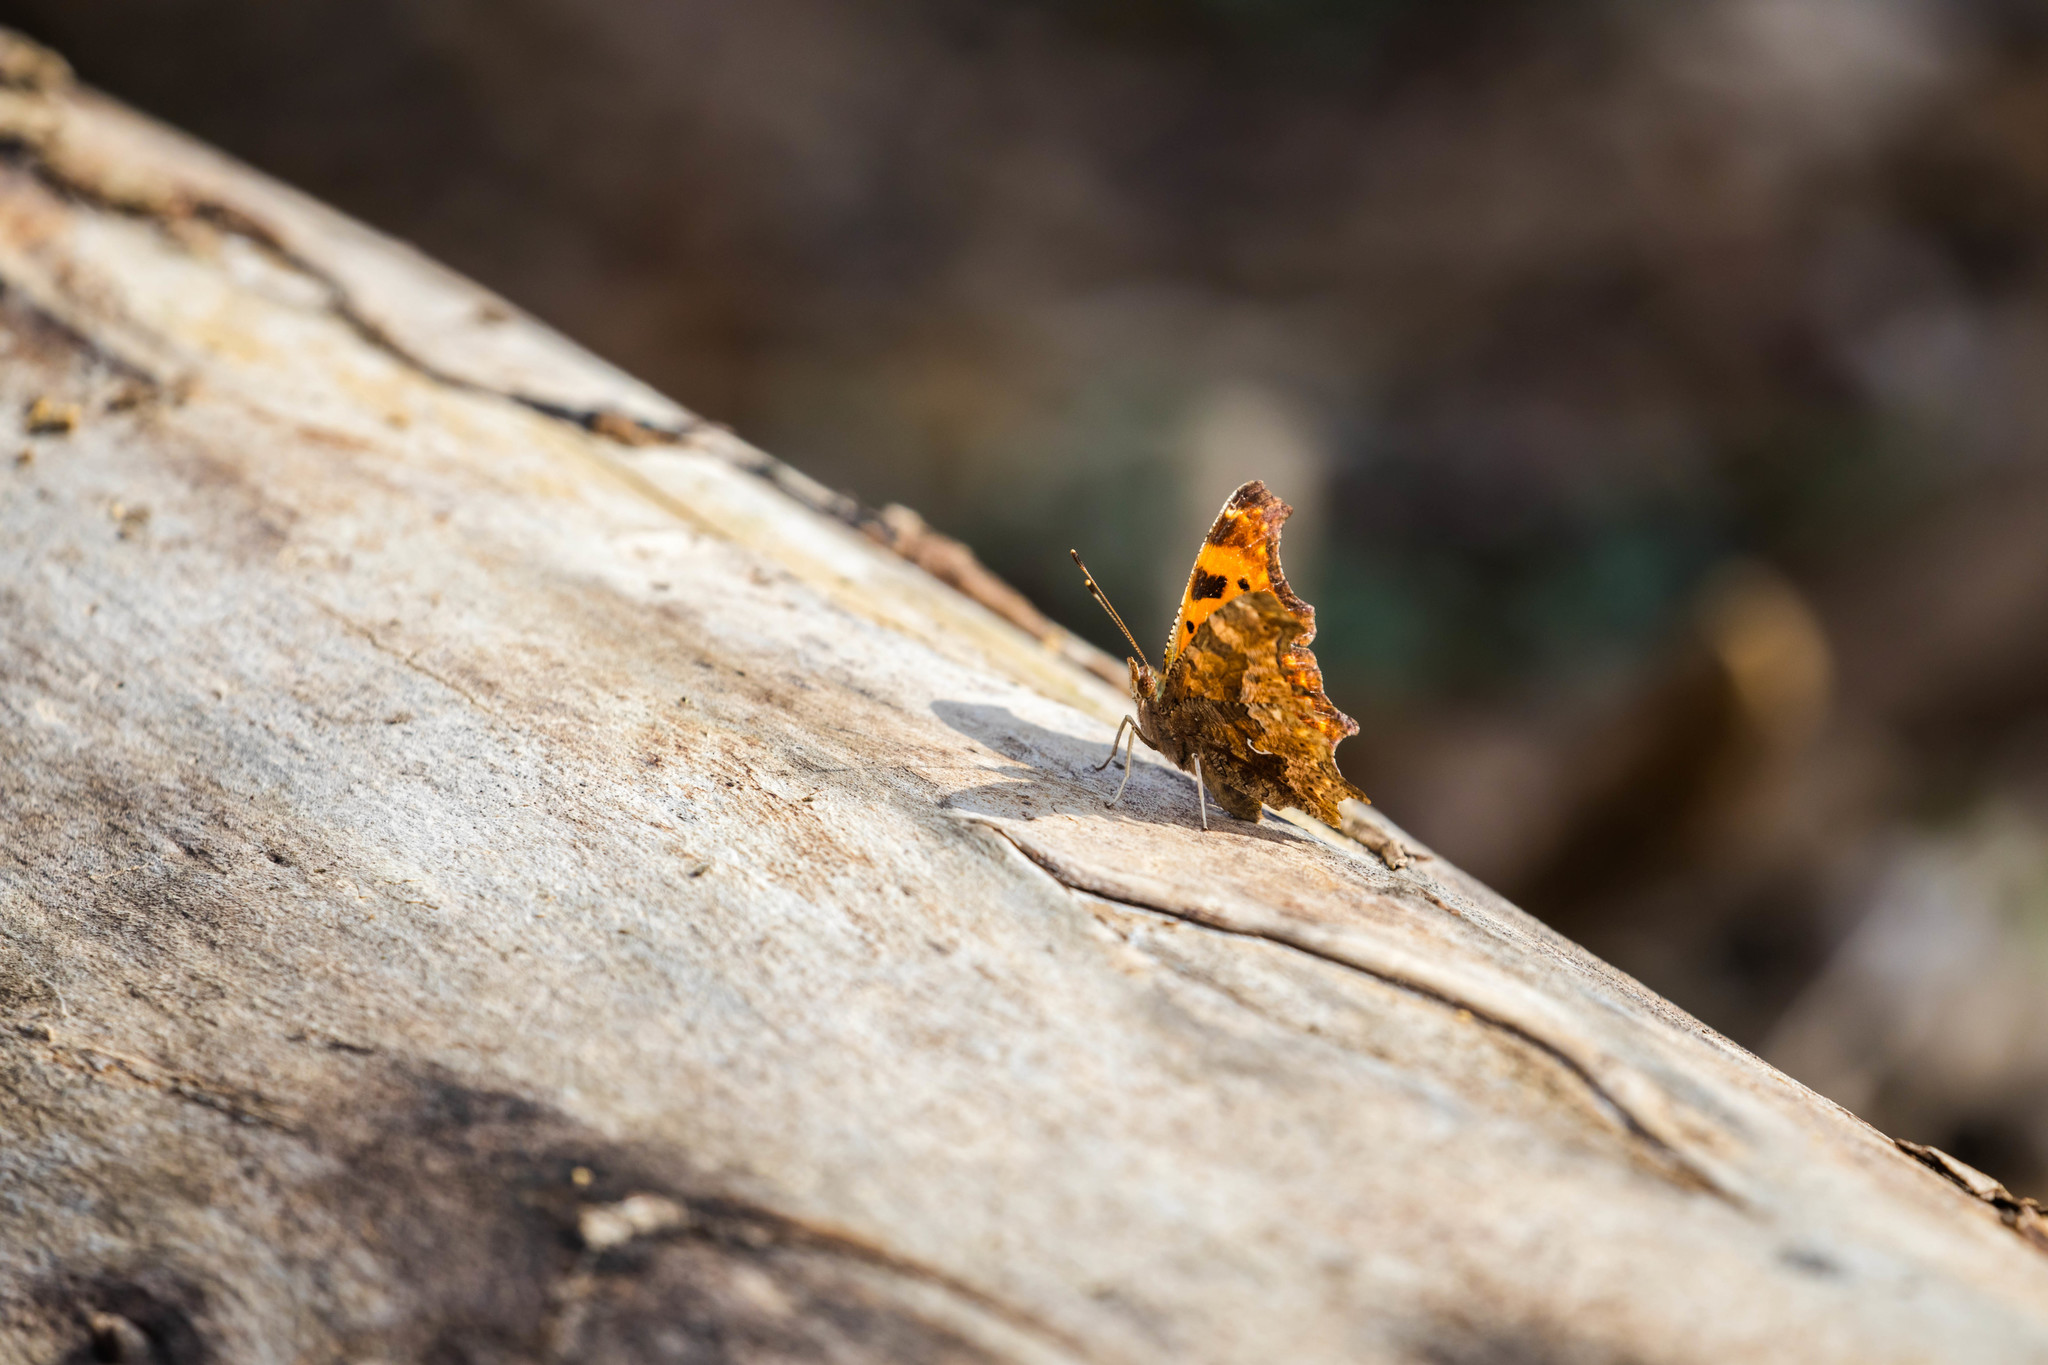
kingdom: Animalia
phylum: Arthropoda
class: Insecta
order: Lepidoptera
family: Nymphalidae
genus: Polygonia
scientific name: Polygonia comma
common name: Eastern comma
